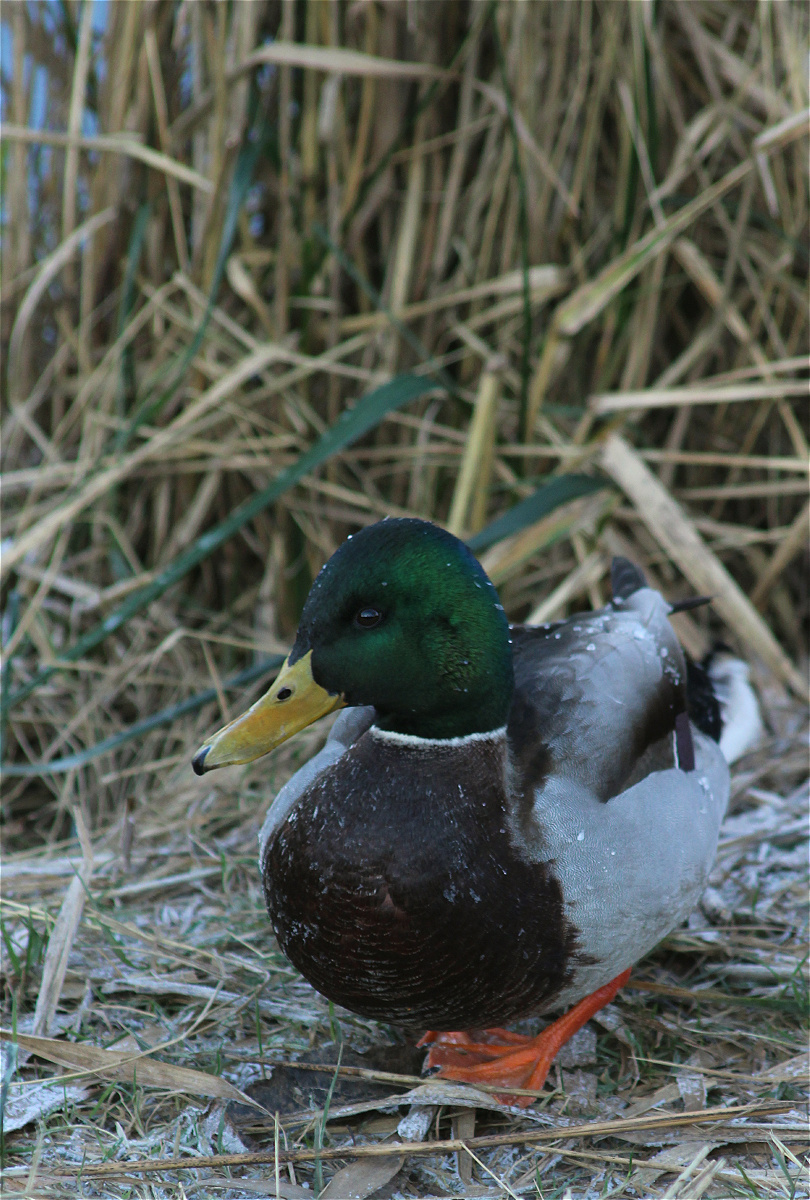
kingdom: Animalia
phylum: Chordata
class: Aves
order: Anseriformes
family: Anatidae
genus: Anas
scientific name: Anas platyrhynchos
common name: Mallard
